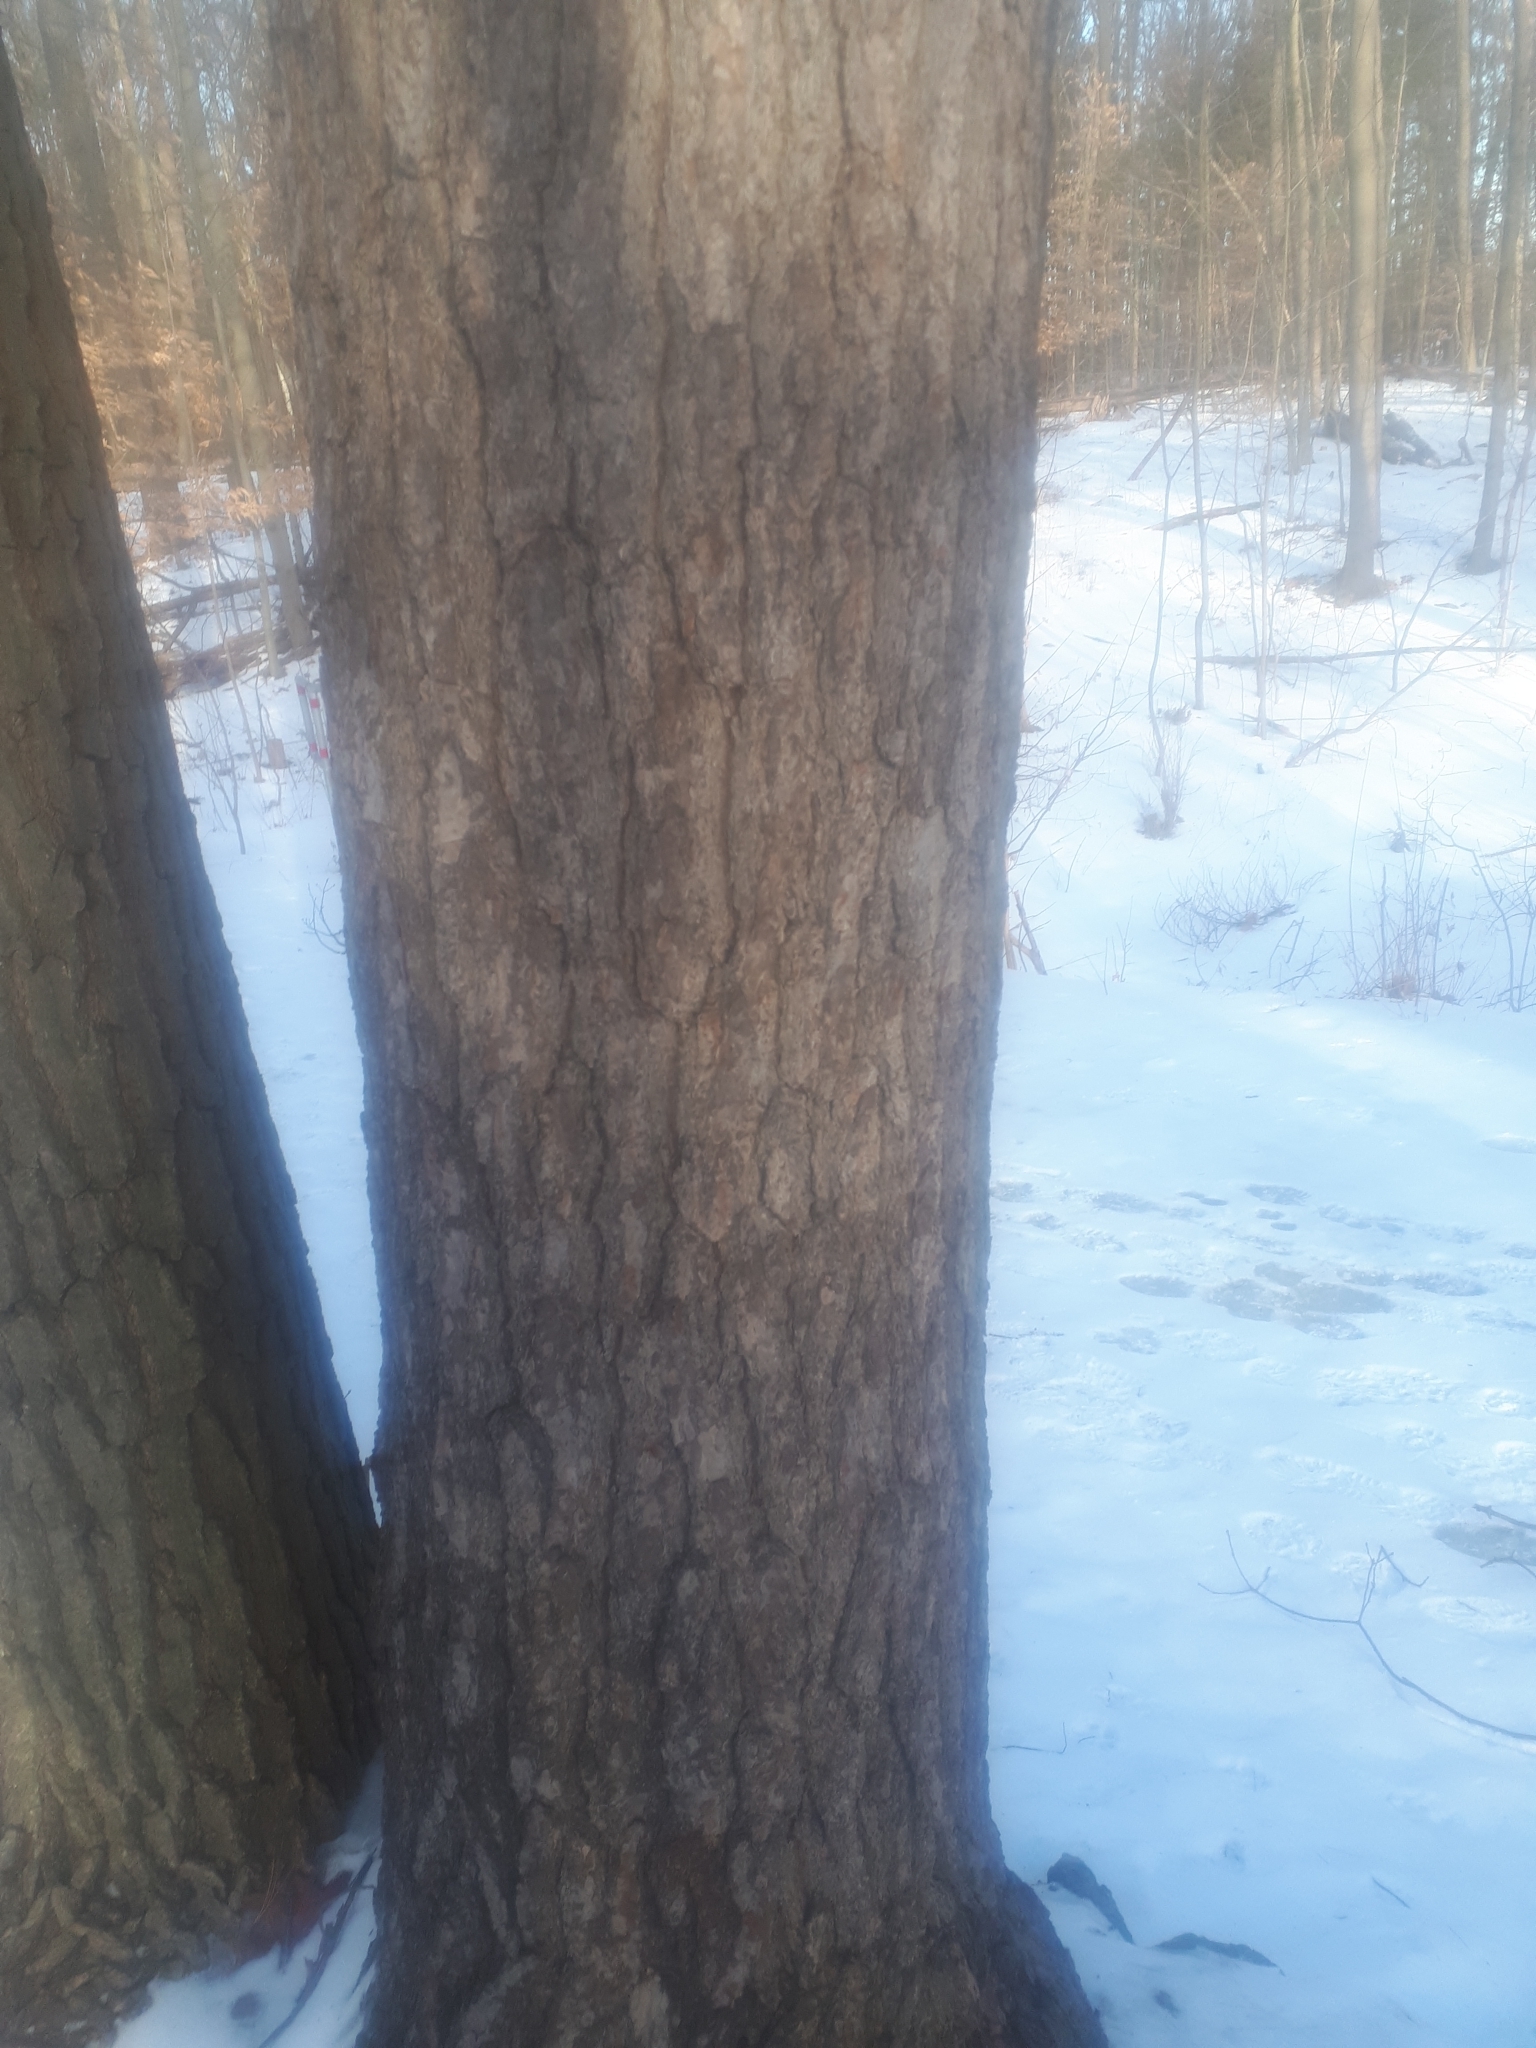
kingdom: Plantae
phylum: Tracheophyta
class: Pinopsida
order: Pinales
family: Pinaceae
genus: Pinus
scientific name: Pinus strobus
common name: Weymouth pine
